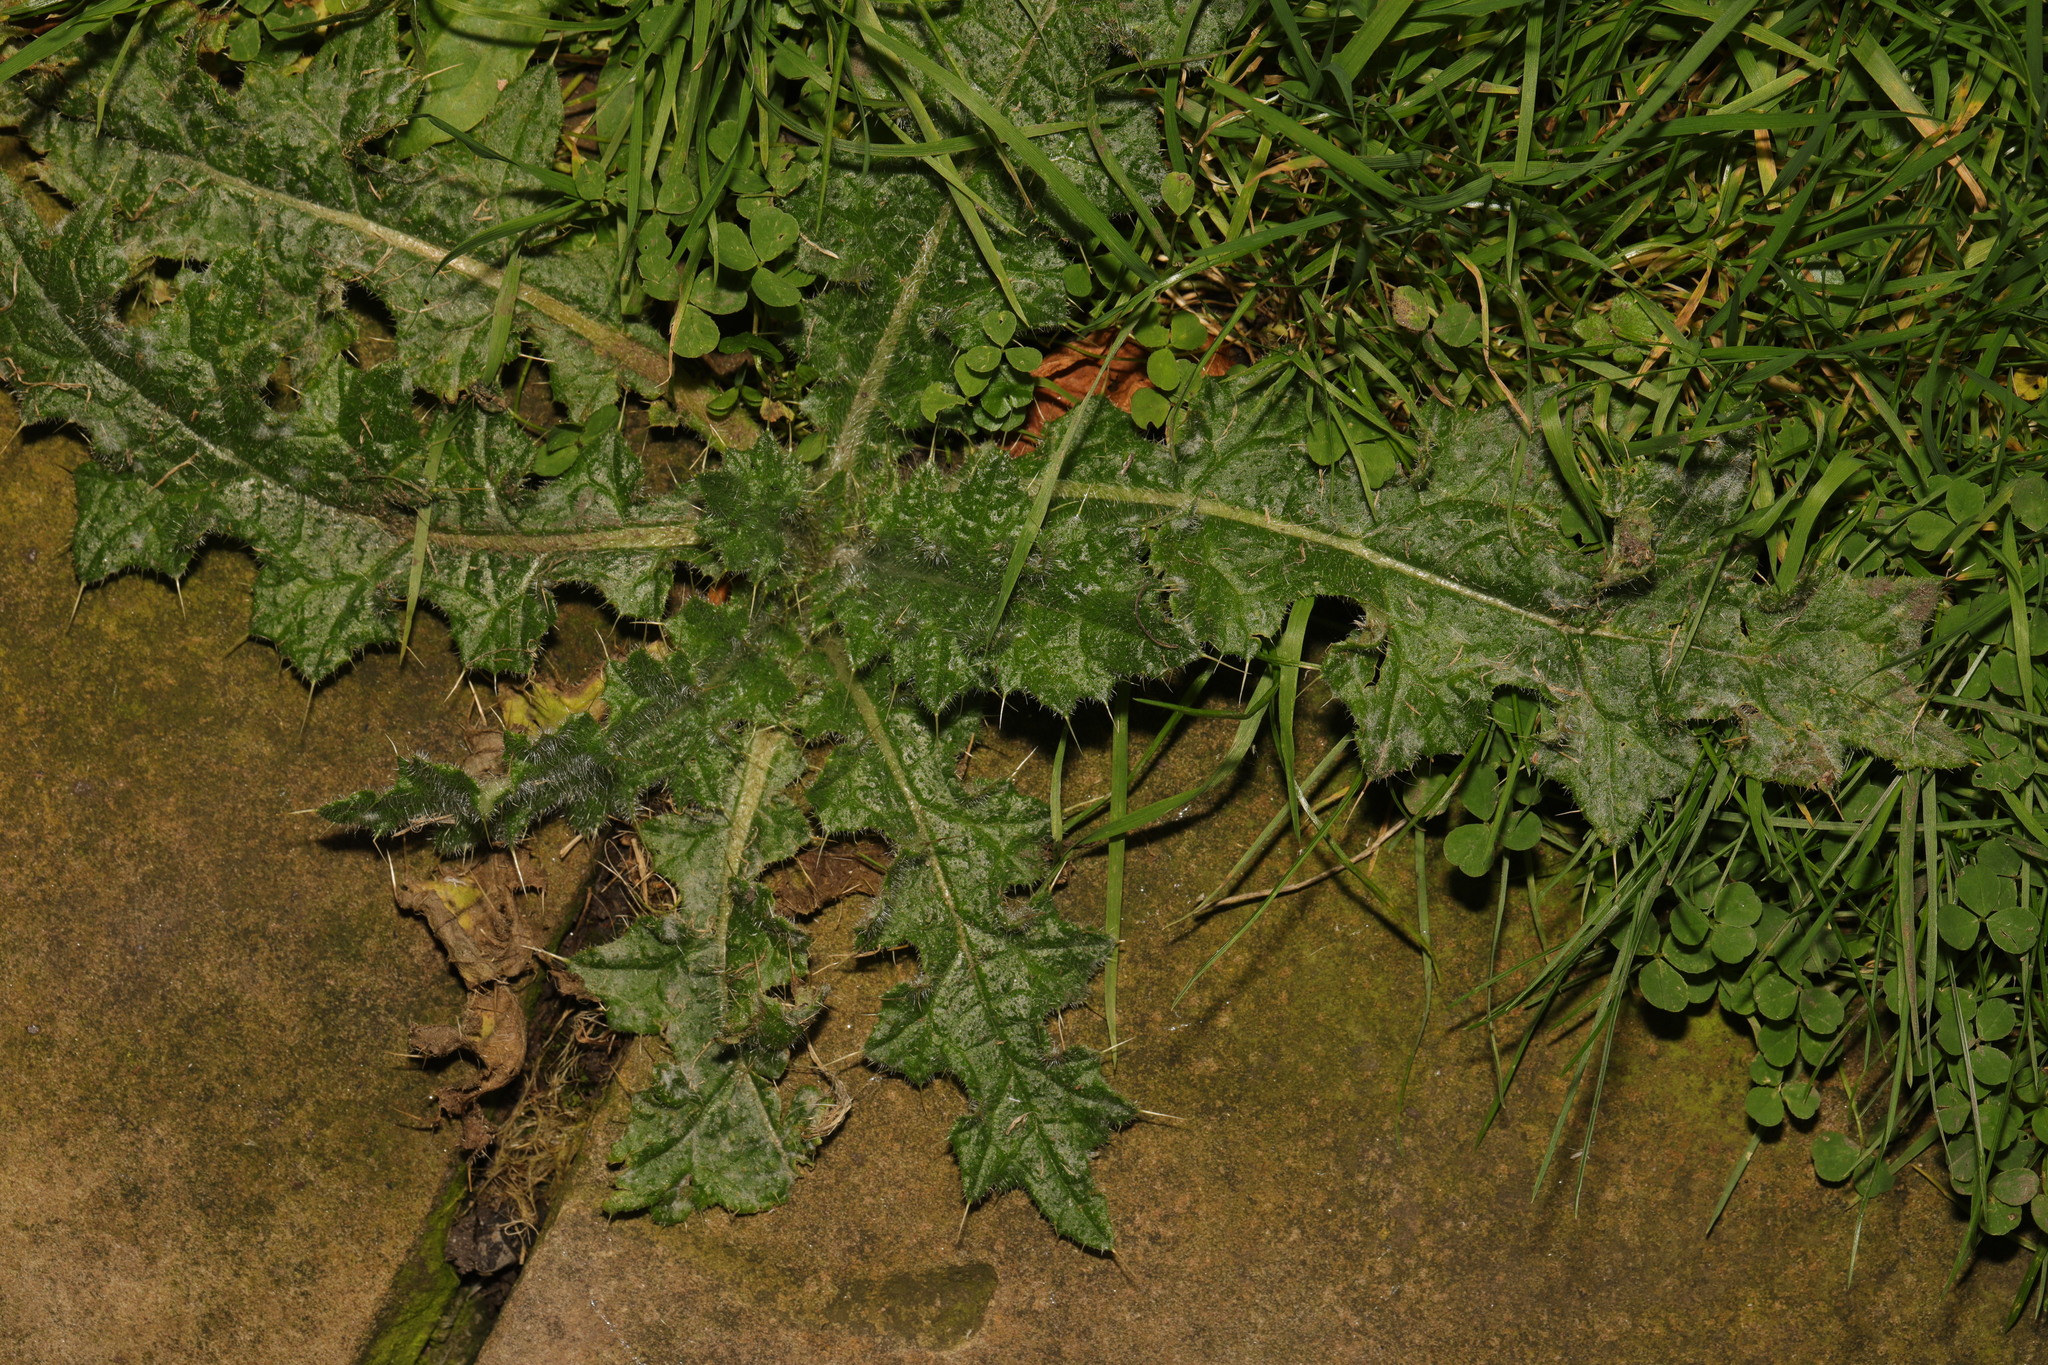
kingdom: Plantae
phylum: Tracheophyta
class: Magnoliopsida
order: Asterales
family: Asteraceae
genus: Cirsium
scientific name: Cirsium vulgare
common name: Bull thistle
